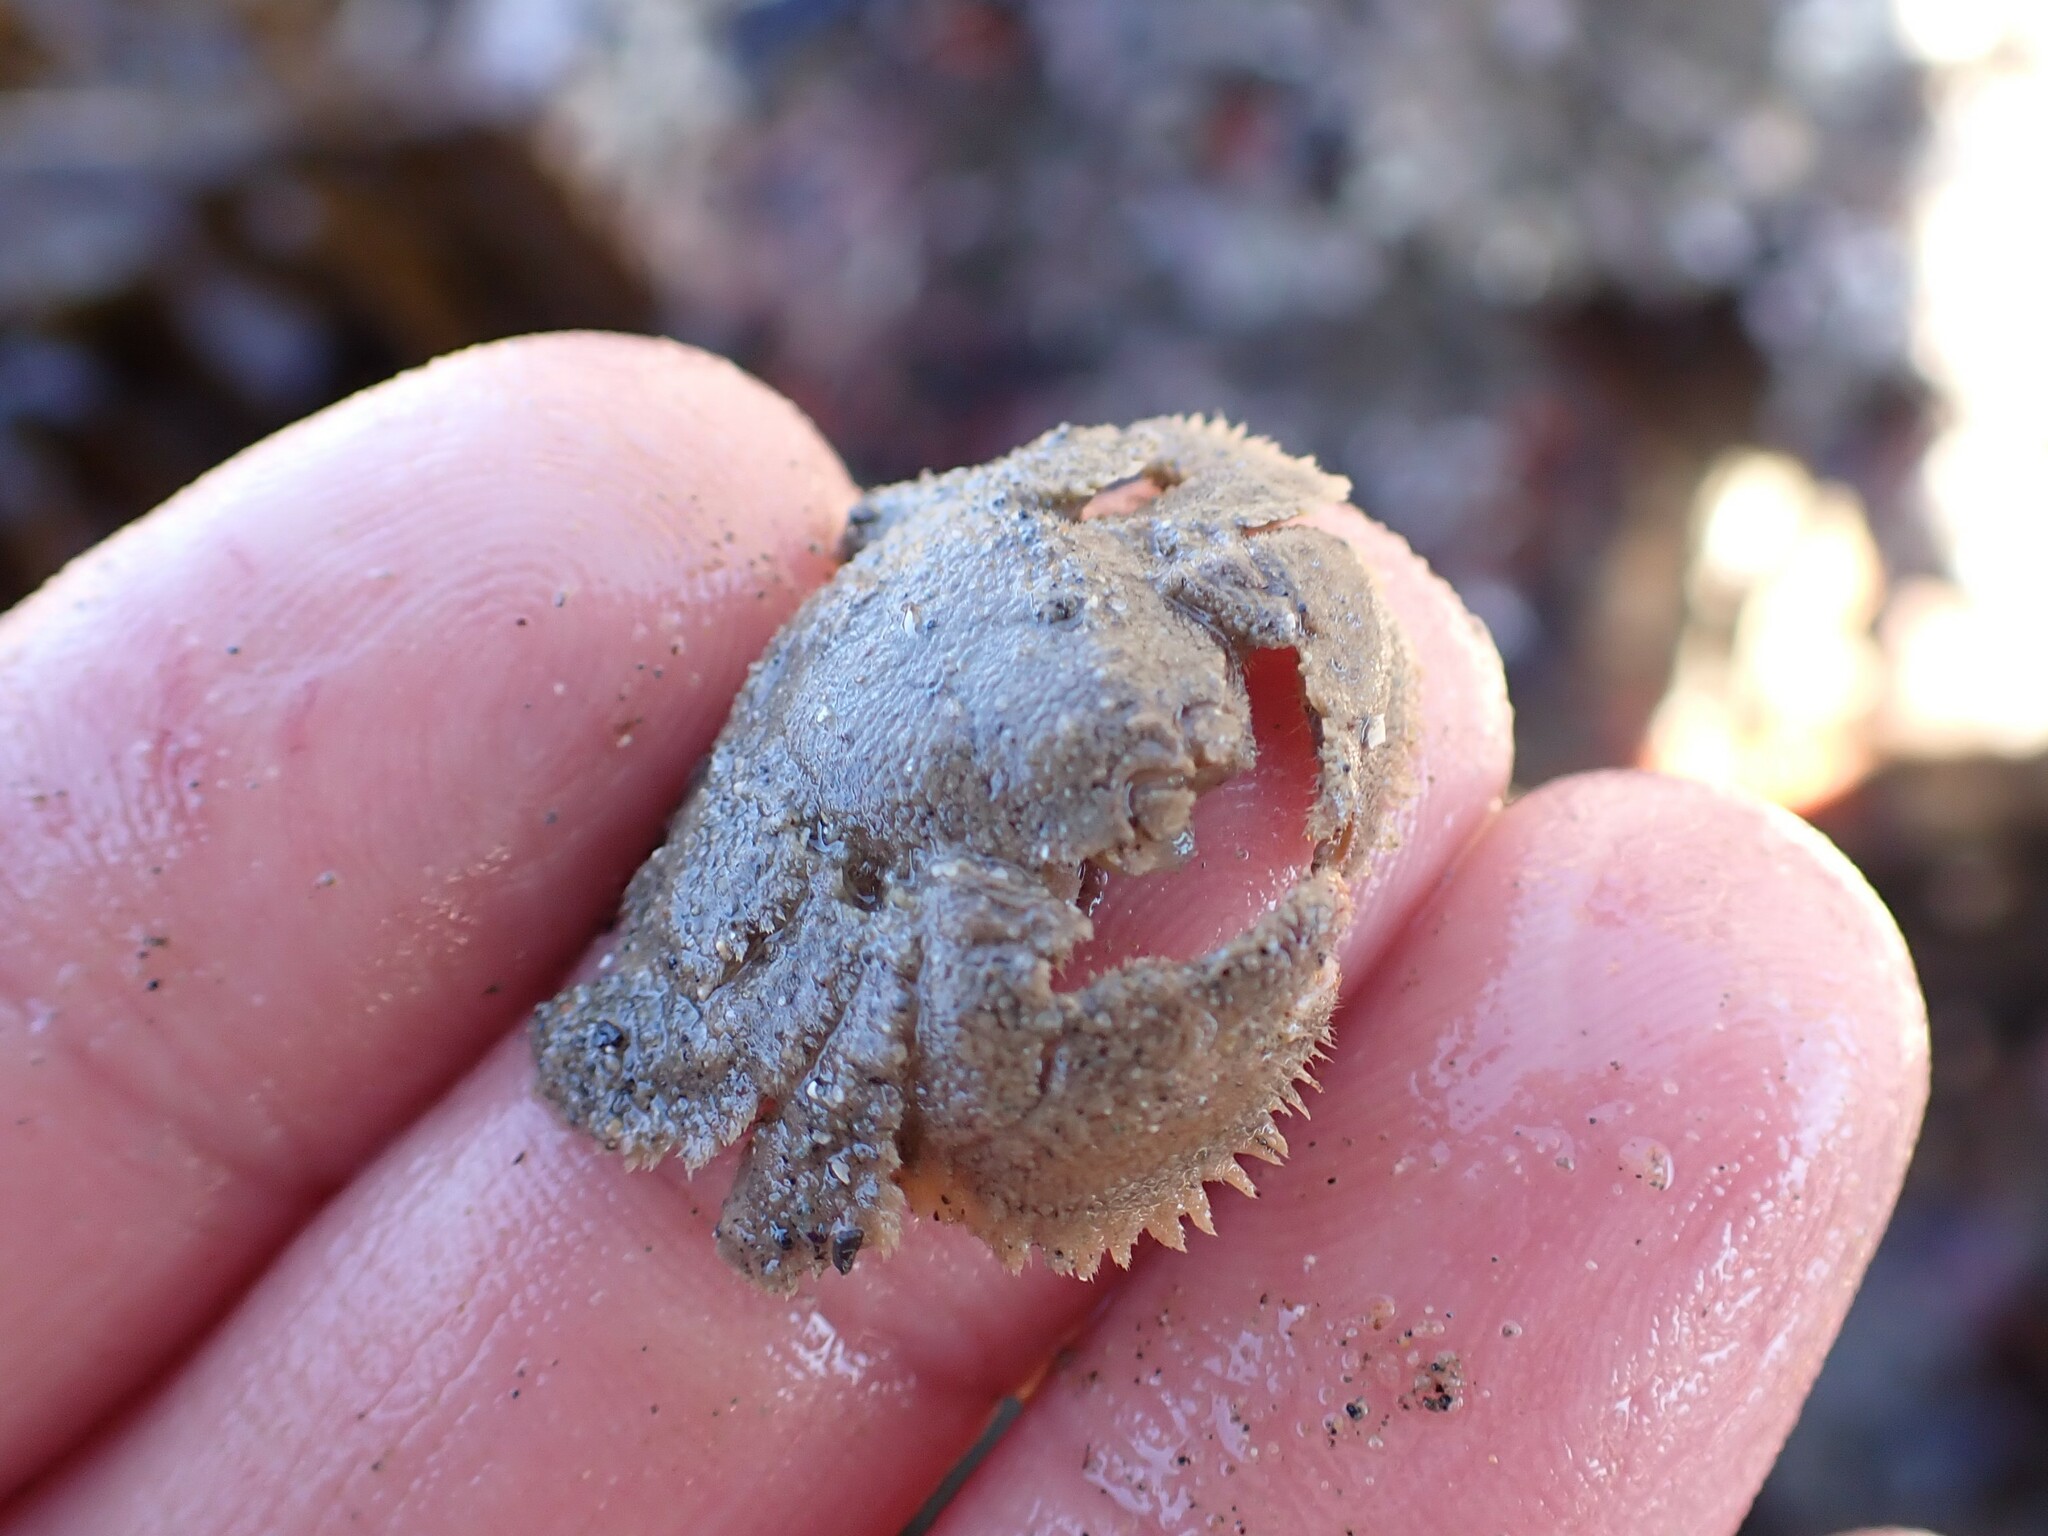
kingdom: Animalia
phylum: Arthropoda
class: Malacostraca
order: Decapoda
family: Hapalogastridae
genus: Hapalogaster
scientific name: Hapalogaster cavicauda
